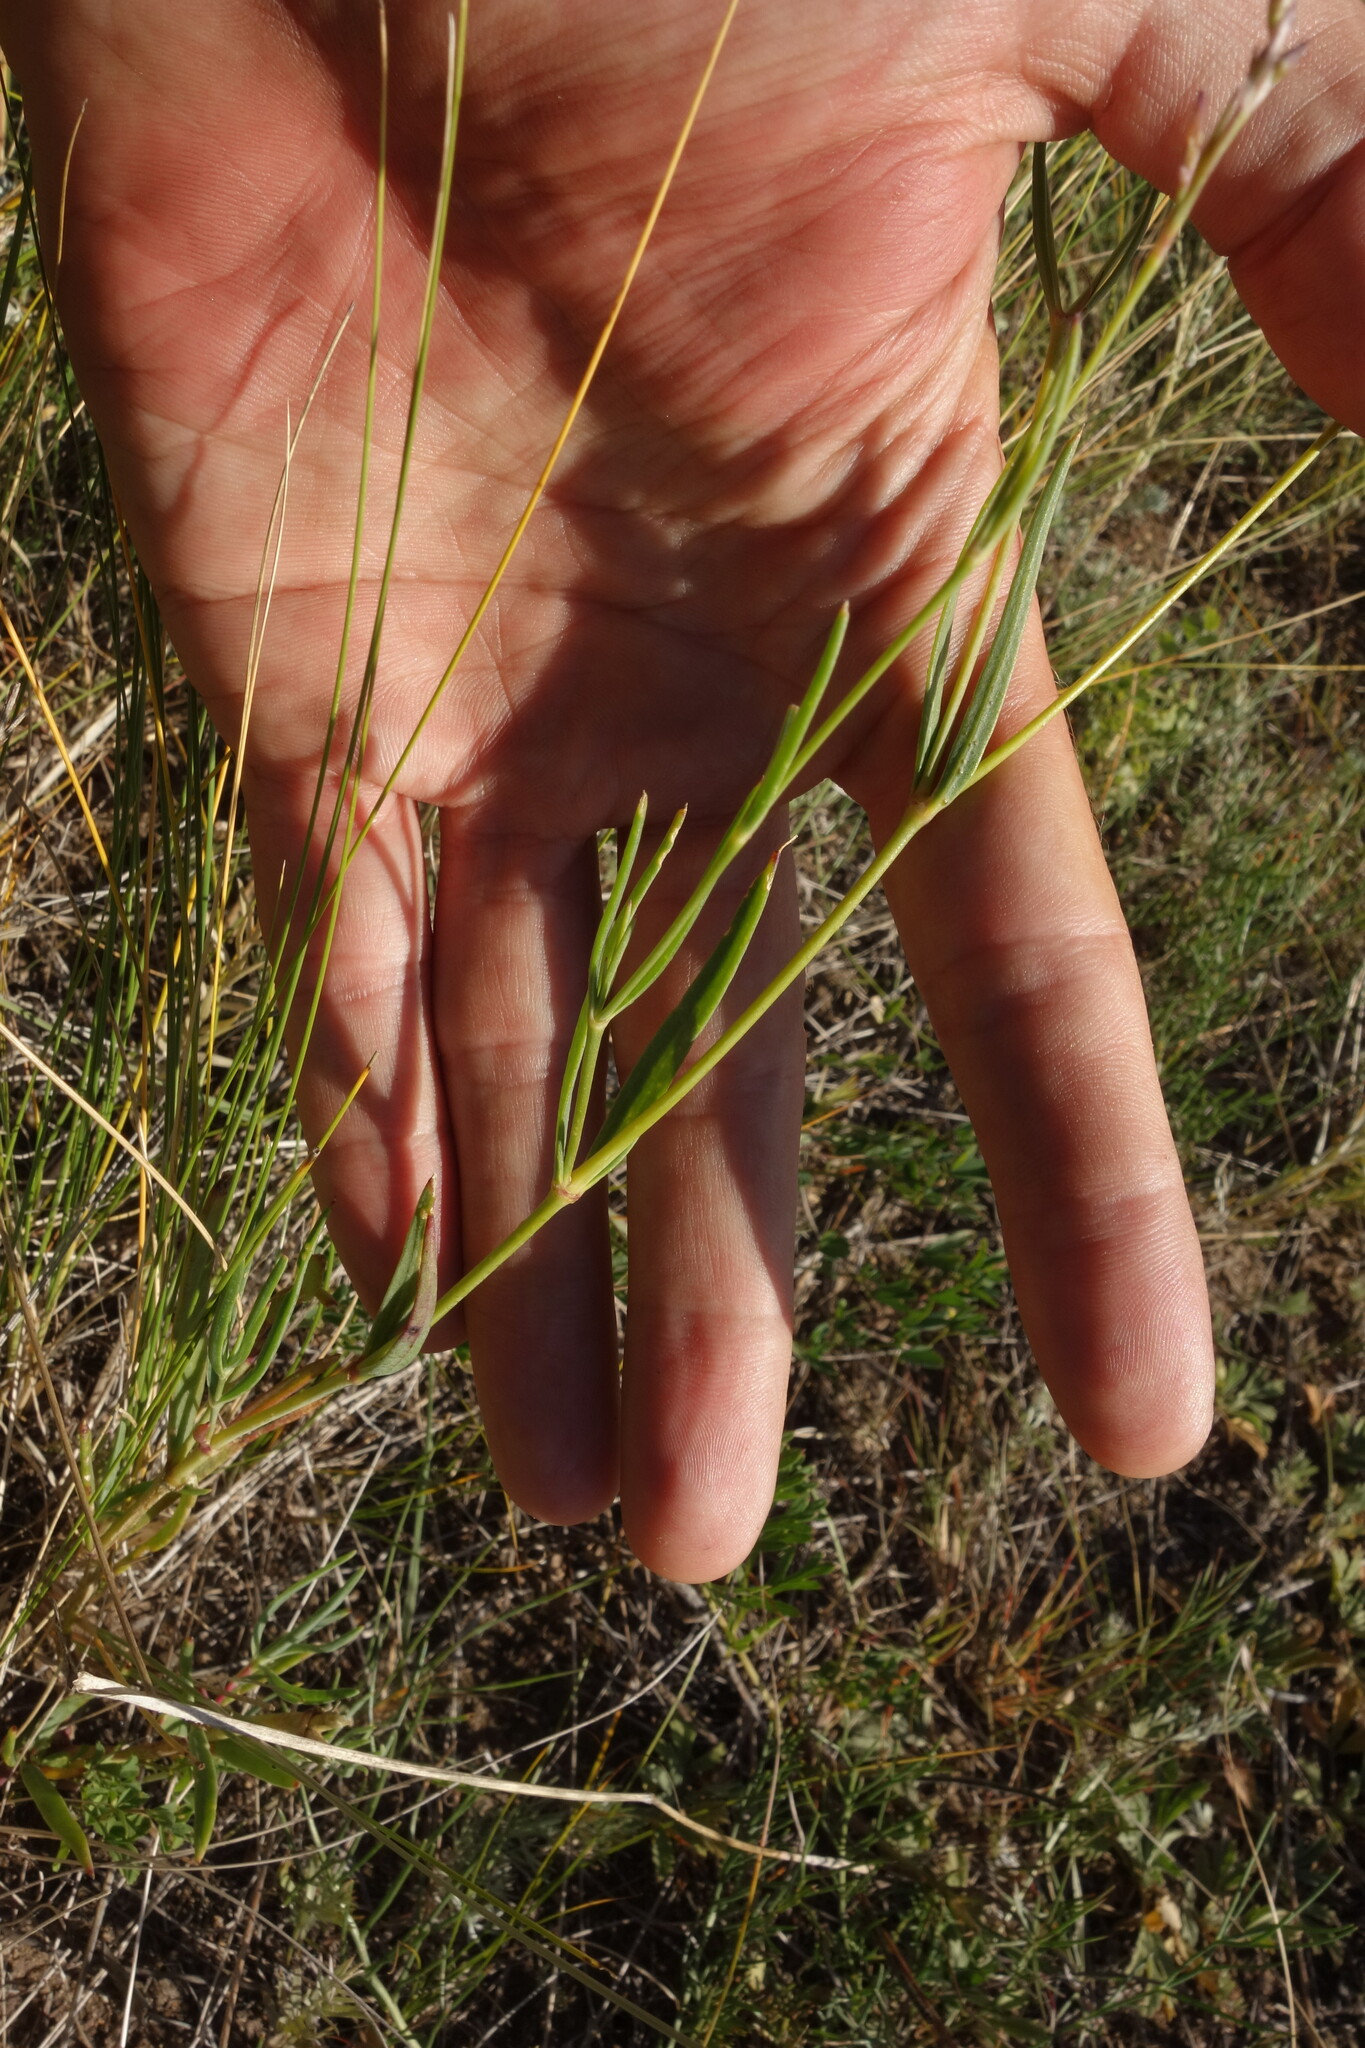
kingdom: Plantae
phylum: Tracheophyta
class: Magnoliopsida
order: Caryophyllales
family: Caryophyllaceae
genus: Gypsophila
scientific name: Gypsophila davurica
